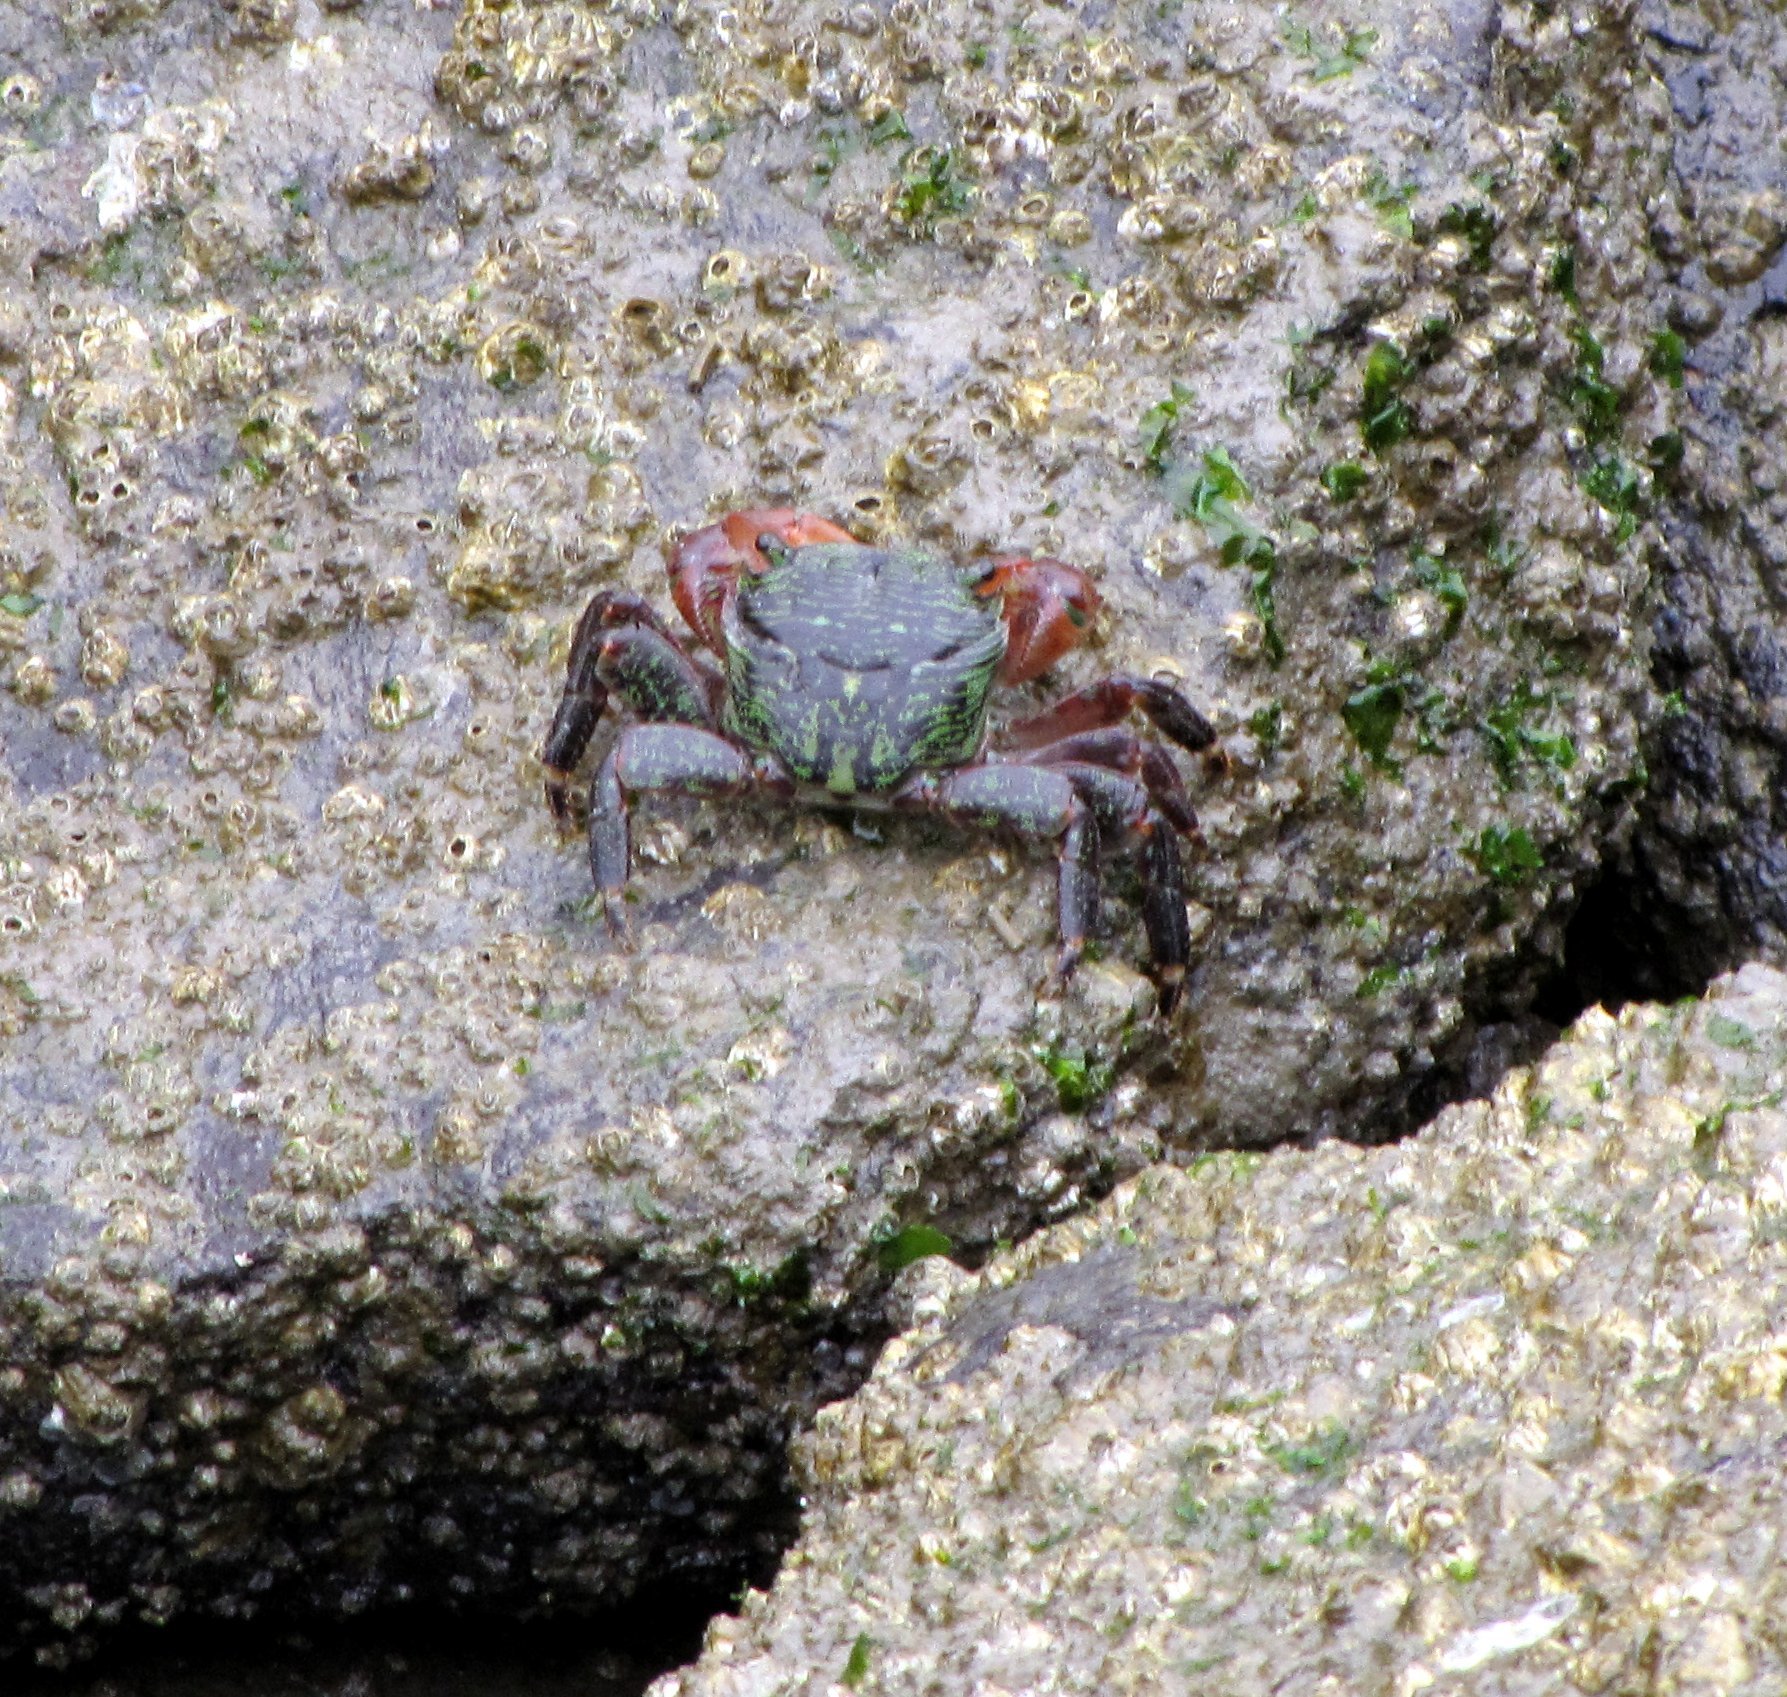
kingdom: Animalia
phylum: Arthropoda
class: Malacostraca
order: Decapoda
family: Grapsidae
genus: Pachygrapsus
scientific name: Pachygrapsus crassipes
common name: Striped shore crab
